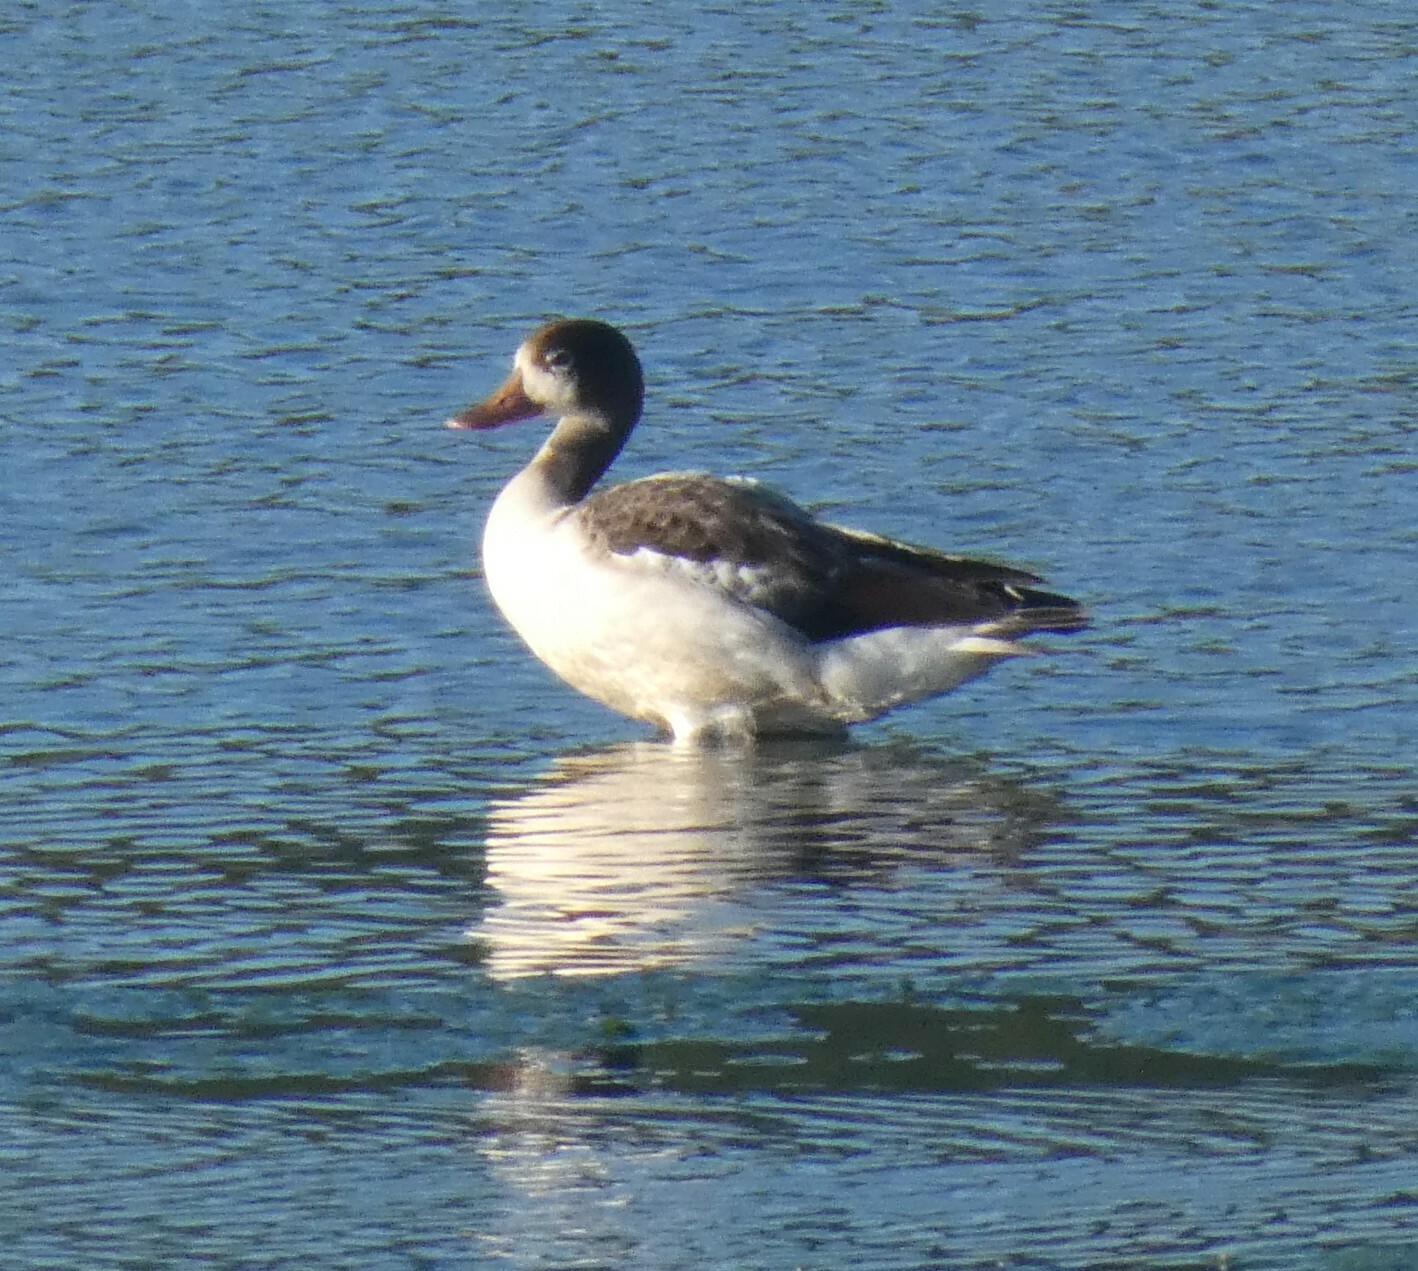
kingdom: Animalia
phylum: Chordata
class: Aves
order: Anseriformes
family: Anatidae
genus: Tadorna
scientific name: Tadorna tadorna
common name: Common shelduck
